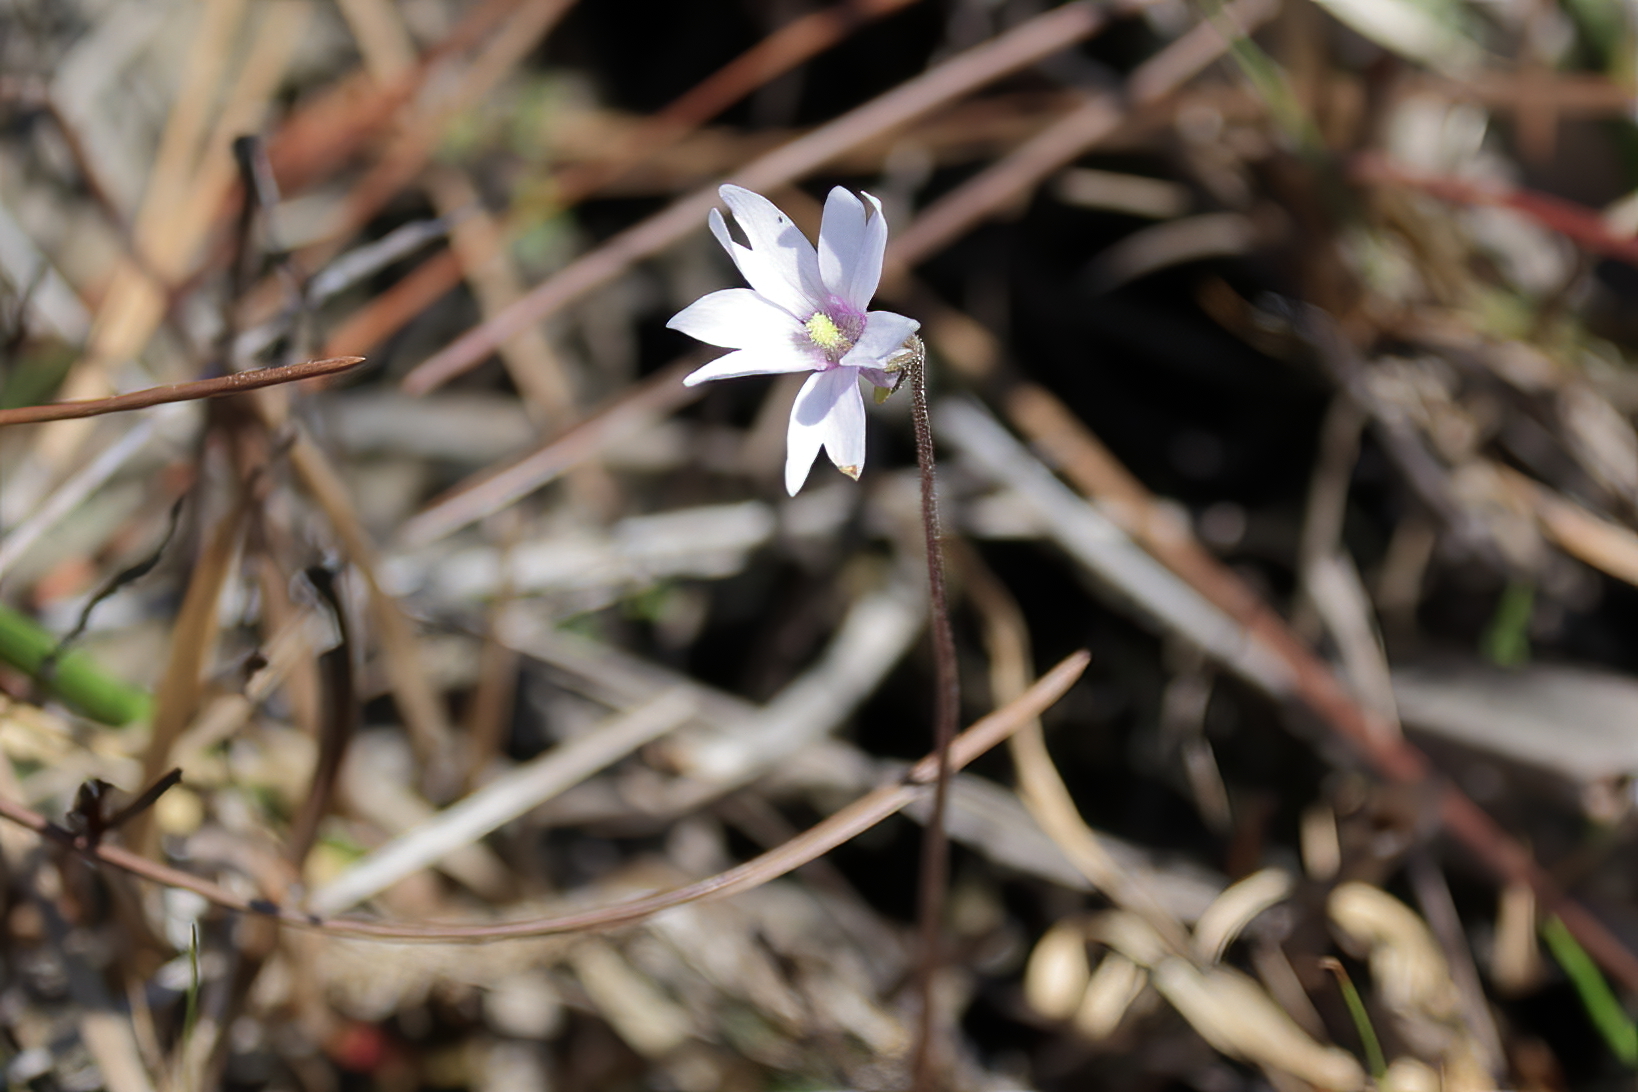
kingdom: Plantae
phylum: Tracheophyta
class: Magnoliopsida
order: Lamiales
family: Lentibulariaceae
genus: Pinguicula
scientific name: Pinguicula planifolia
